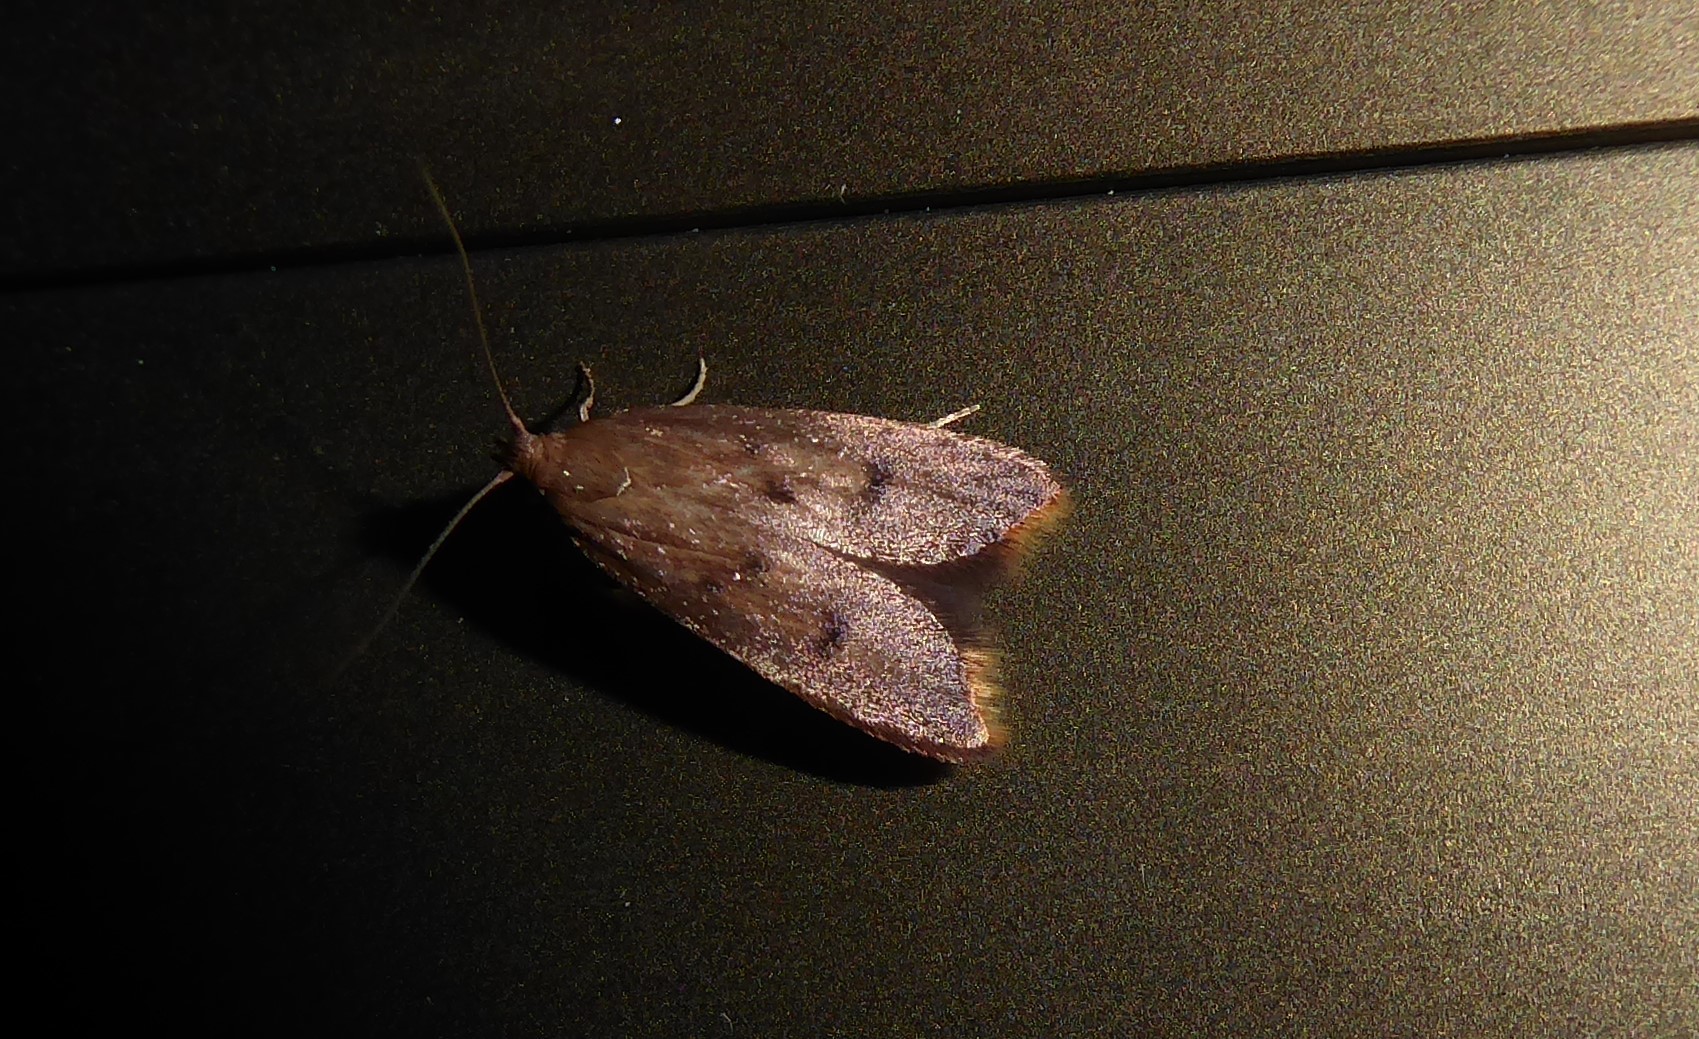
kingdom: Animalia
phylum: Arthropoda
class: Insecta
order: Lepidoptera
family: Oecophoridae
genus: Tachystola
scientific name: Tachystola acroxantha
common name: Ruddy streak
